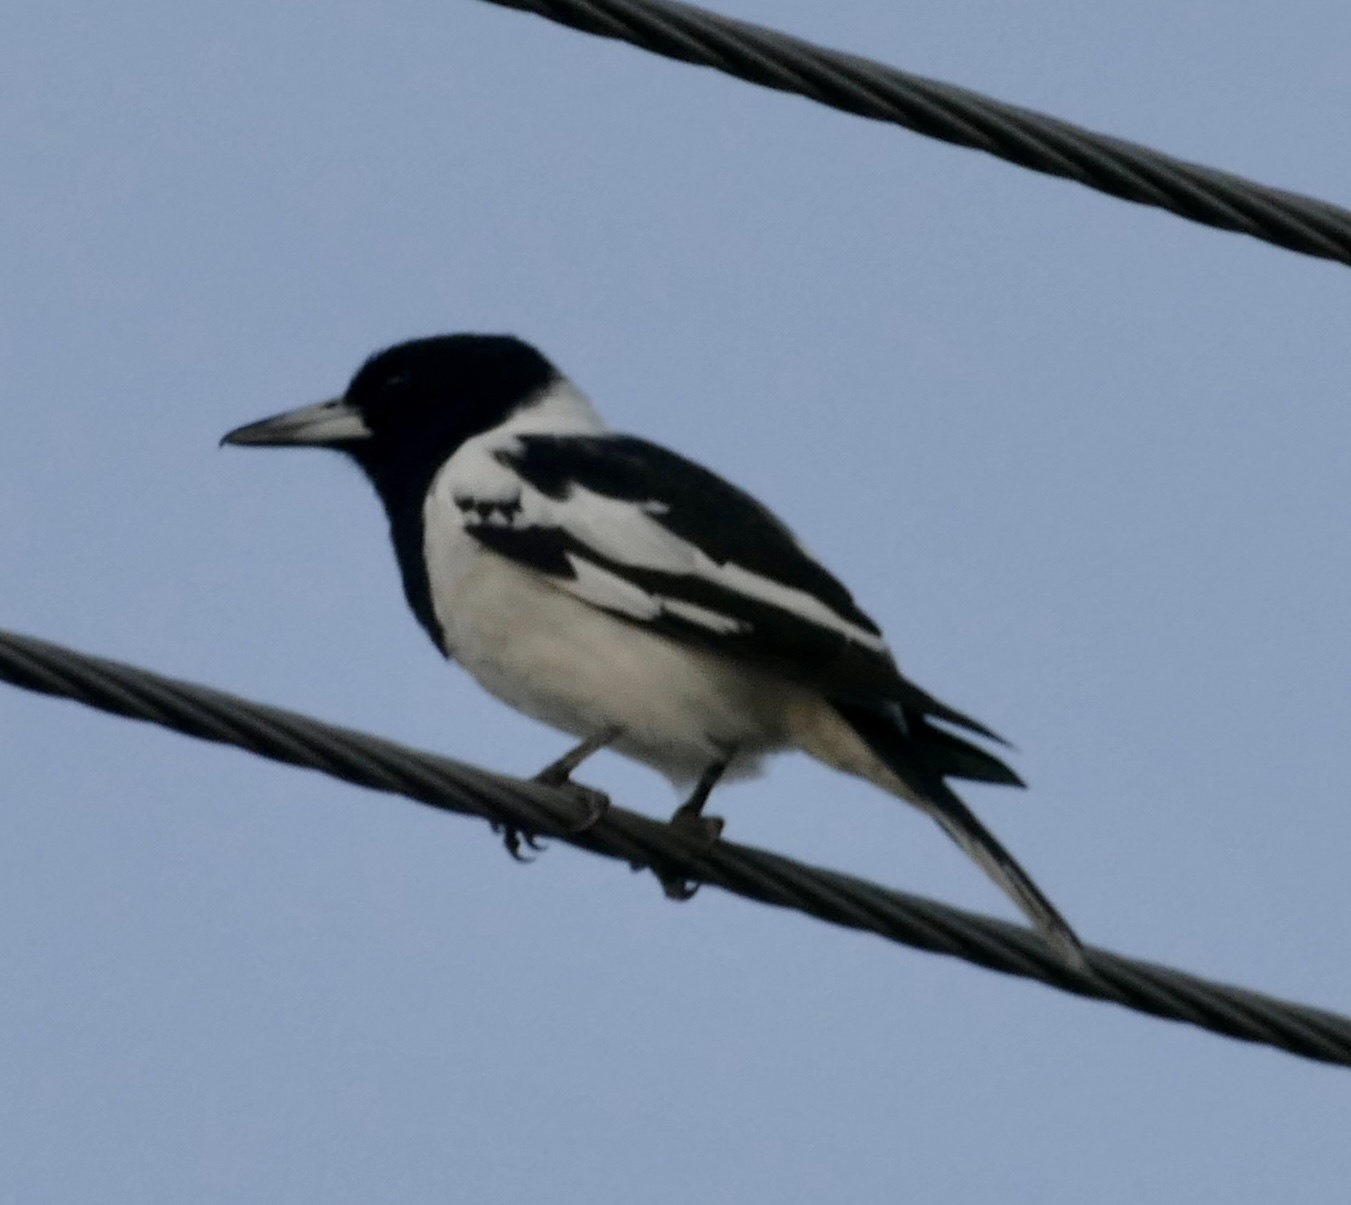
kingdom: Animalia
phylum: Chordata
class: Aves
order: Passeriformes
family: Cracticidae
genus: Cracticus
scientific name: Cracticus nigrogularis
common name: Pied butcherbird
